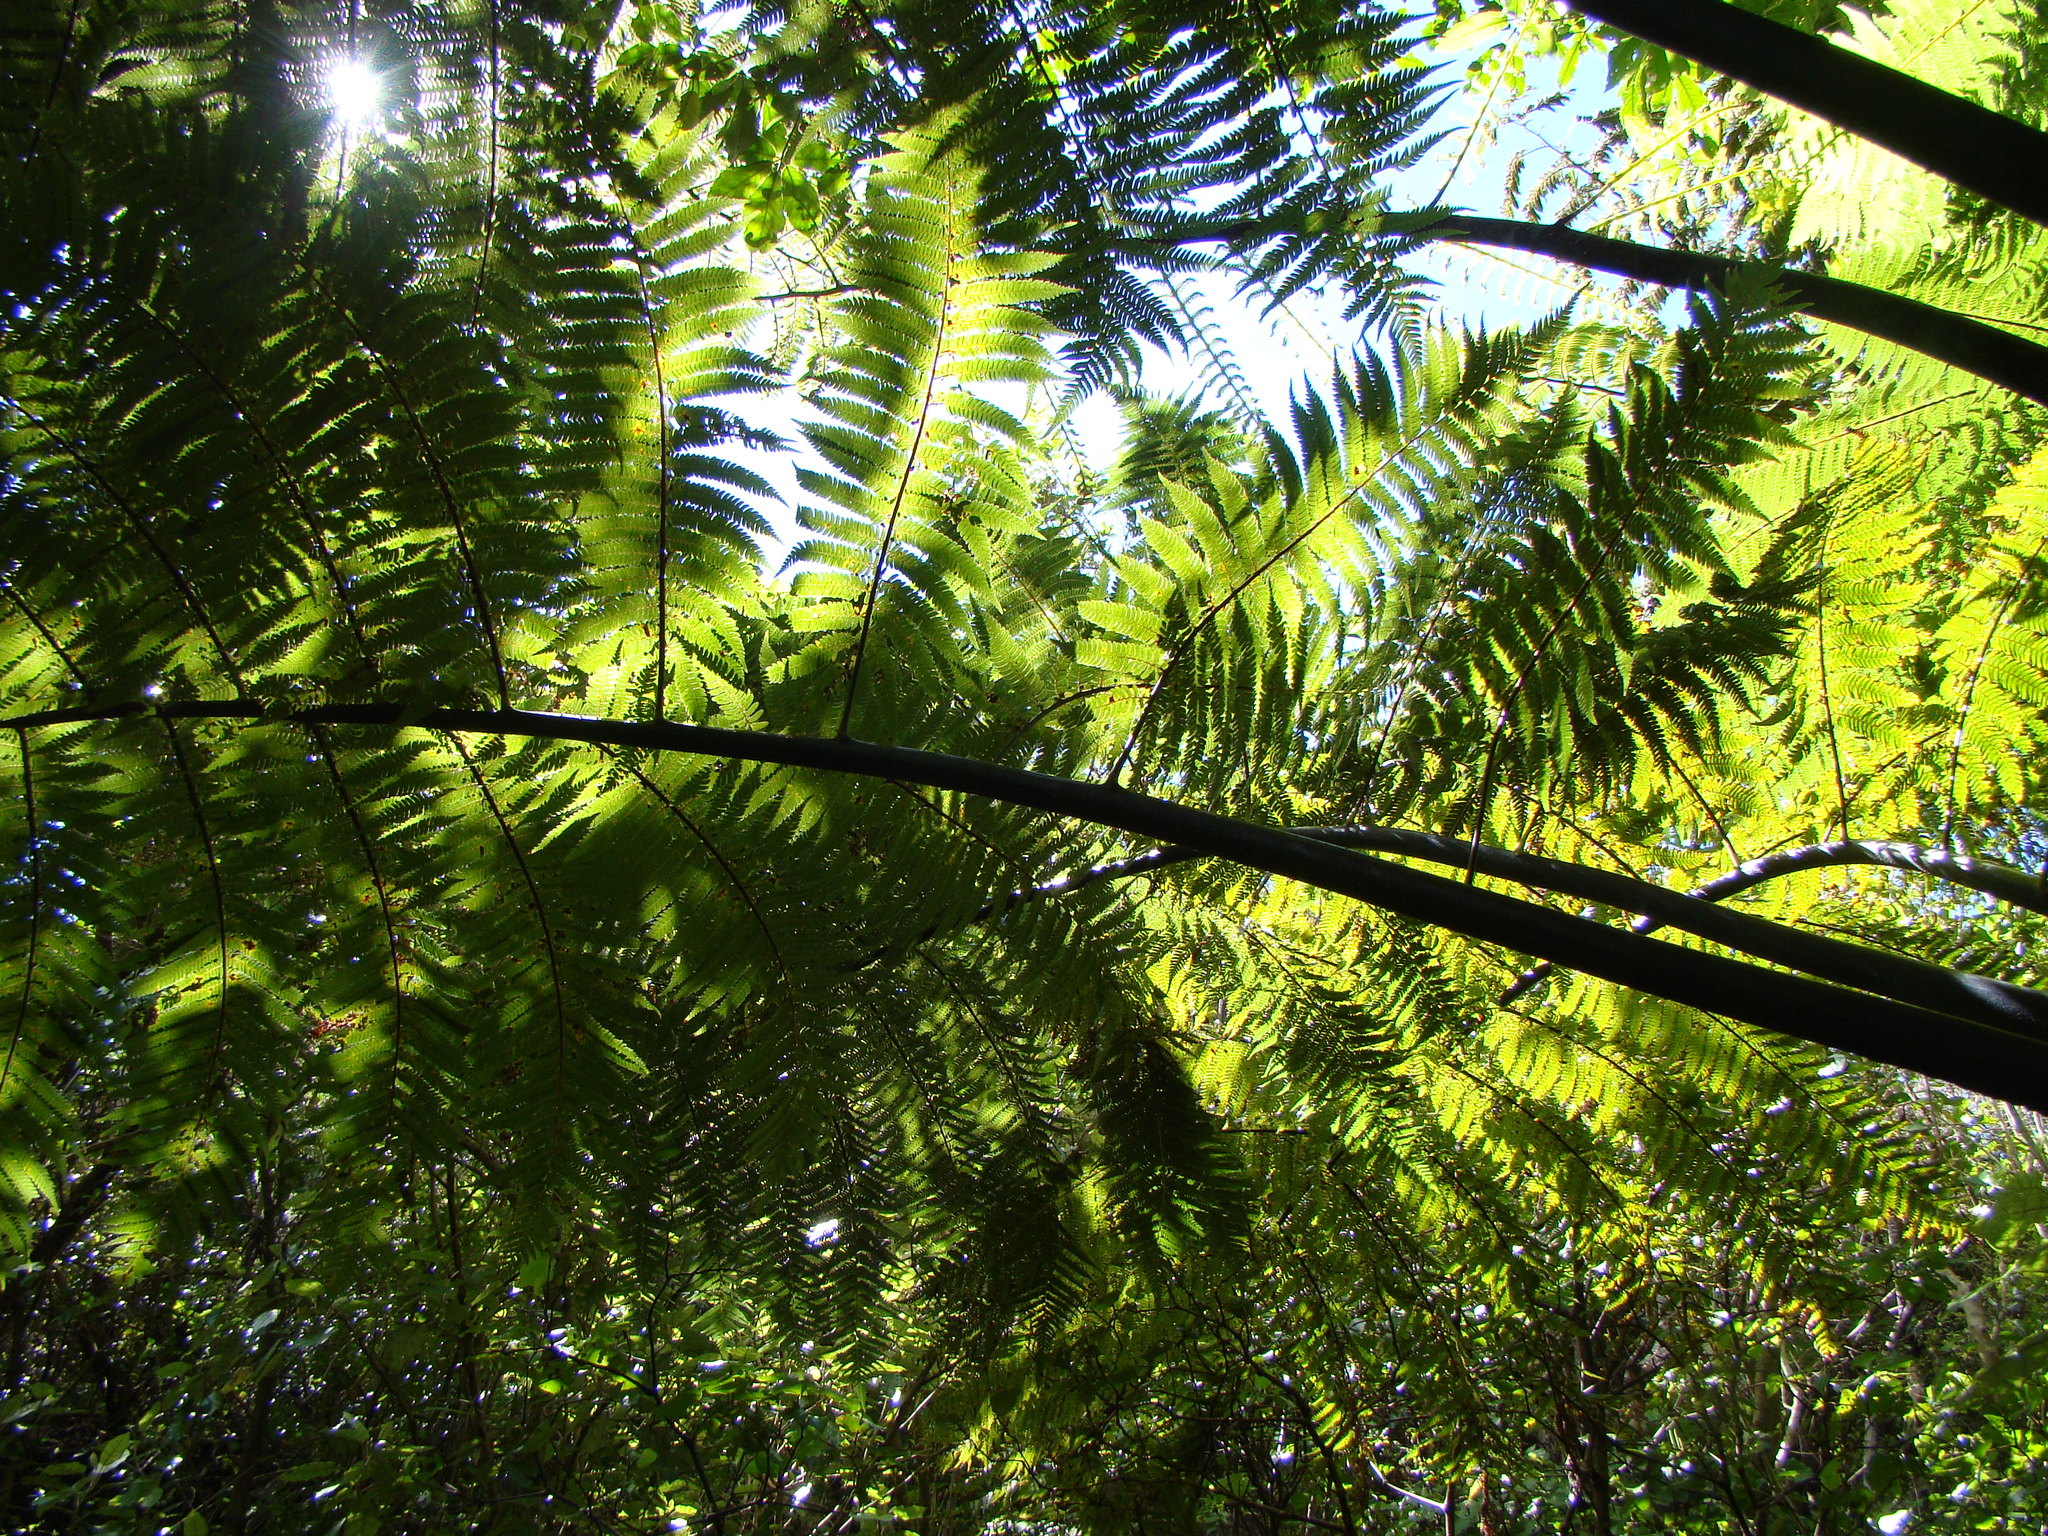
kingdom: Plantae
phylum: Tracheophyta
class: Polypodiopsida
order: Cyatheales
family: Cyatheaceae
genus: Sphaeropteris
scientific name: Sphaeropteris medullaris
